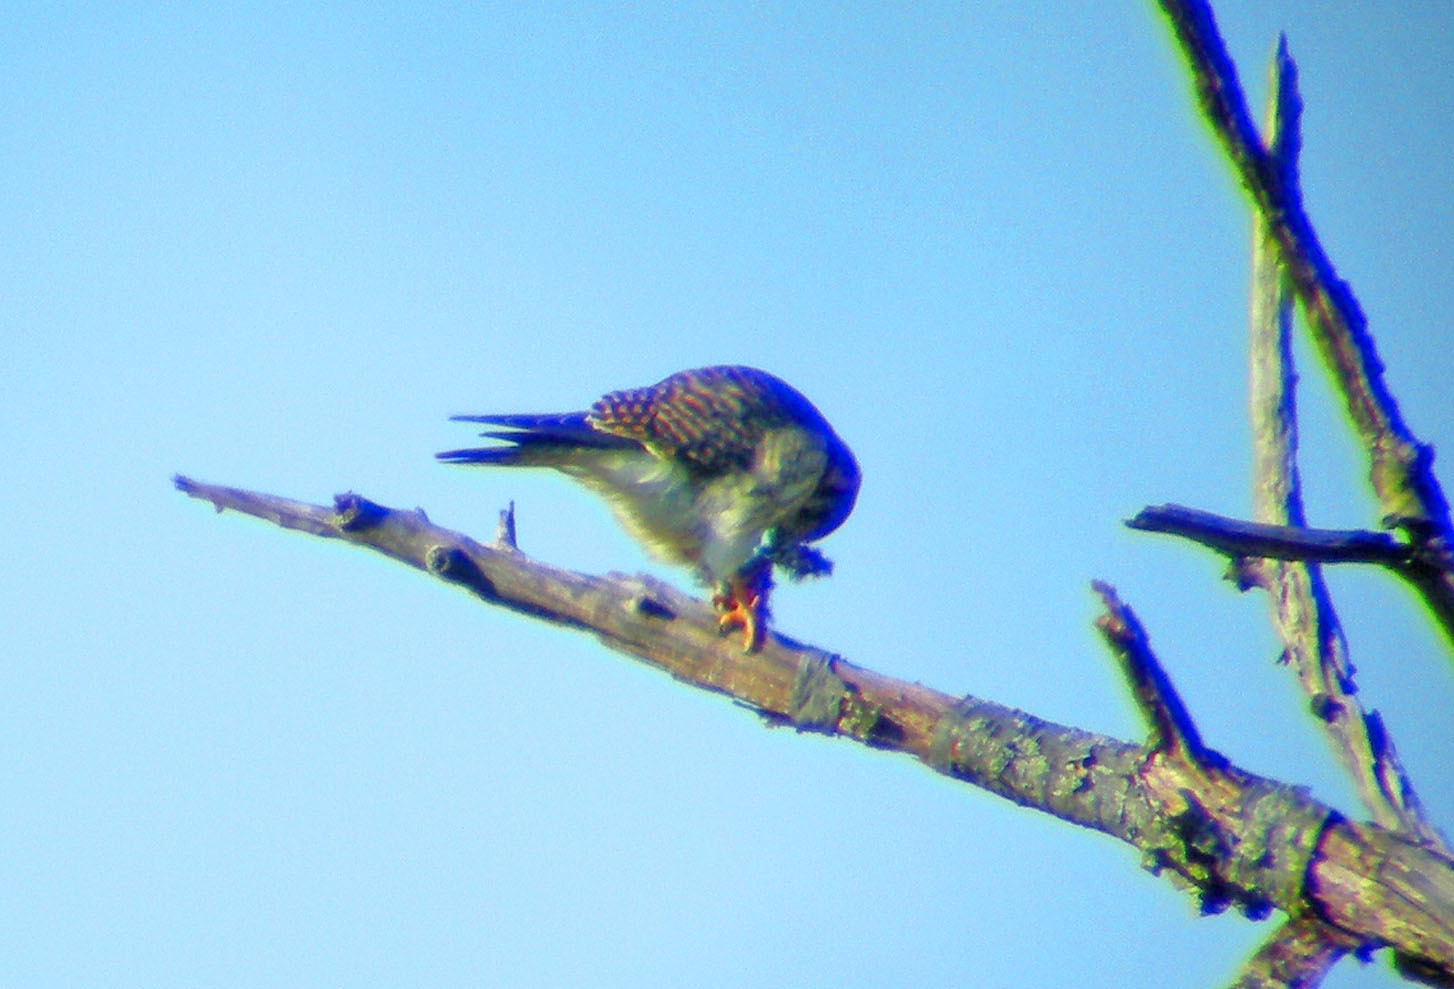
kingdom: Animalia
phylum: Chordata
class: Aves
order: Falconiformes
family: Falconidae
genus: Falco
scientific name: Falco sparverius
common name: American kestrel
